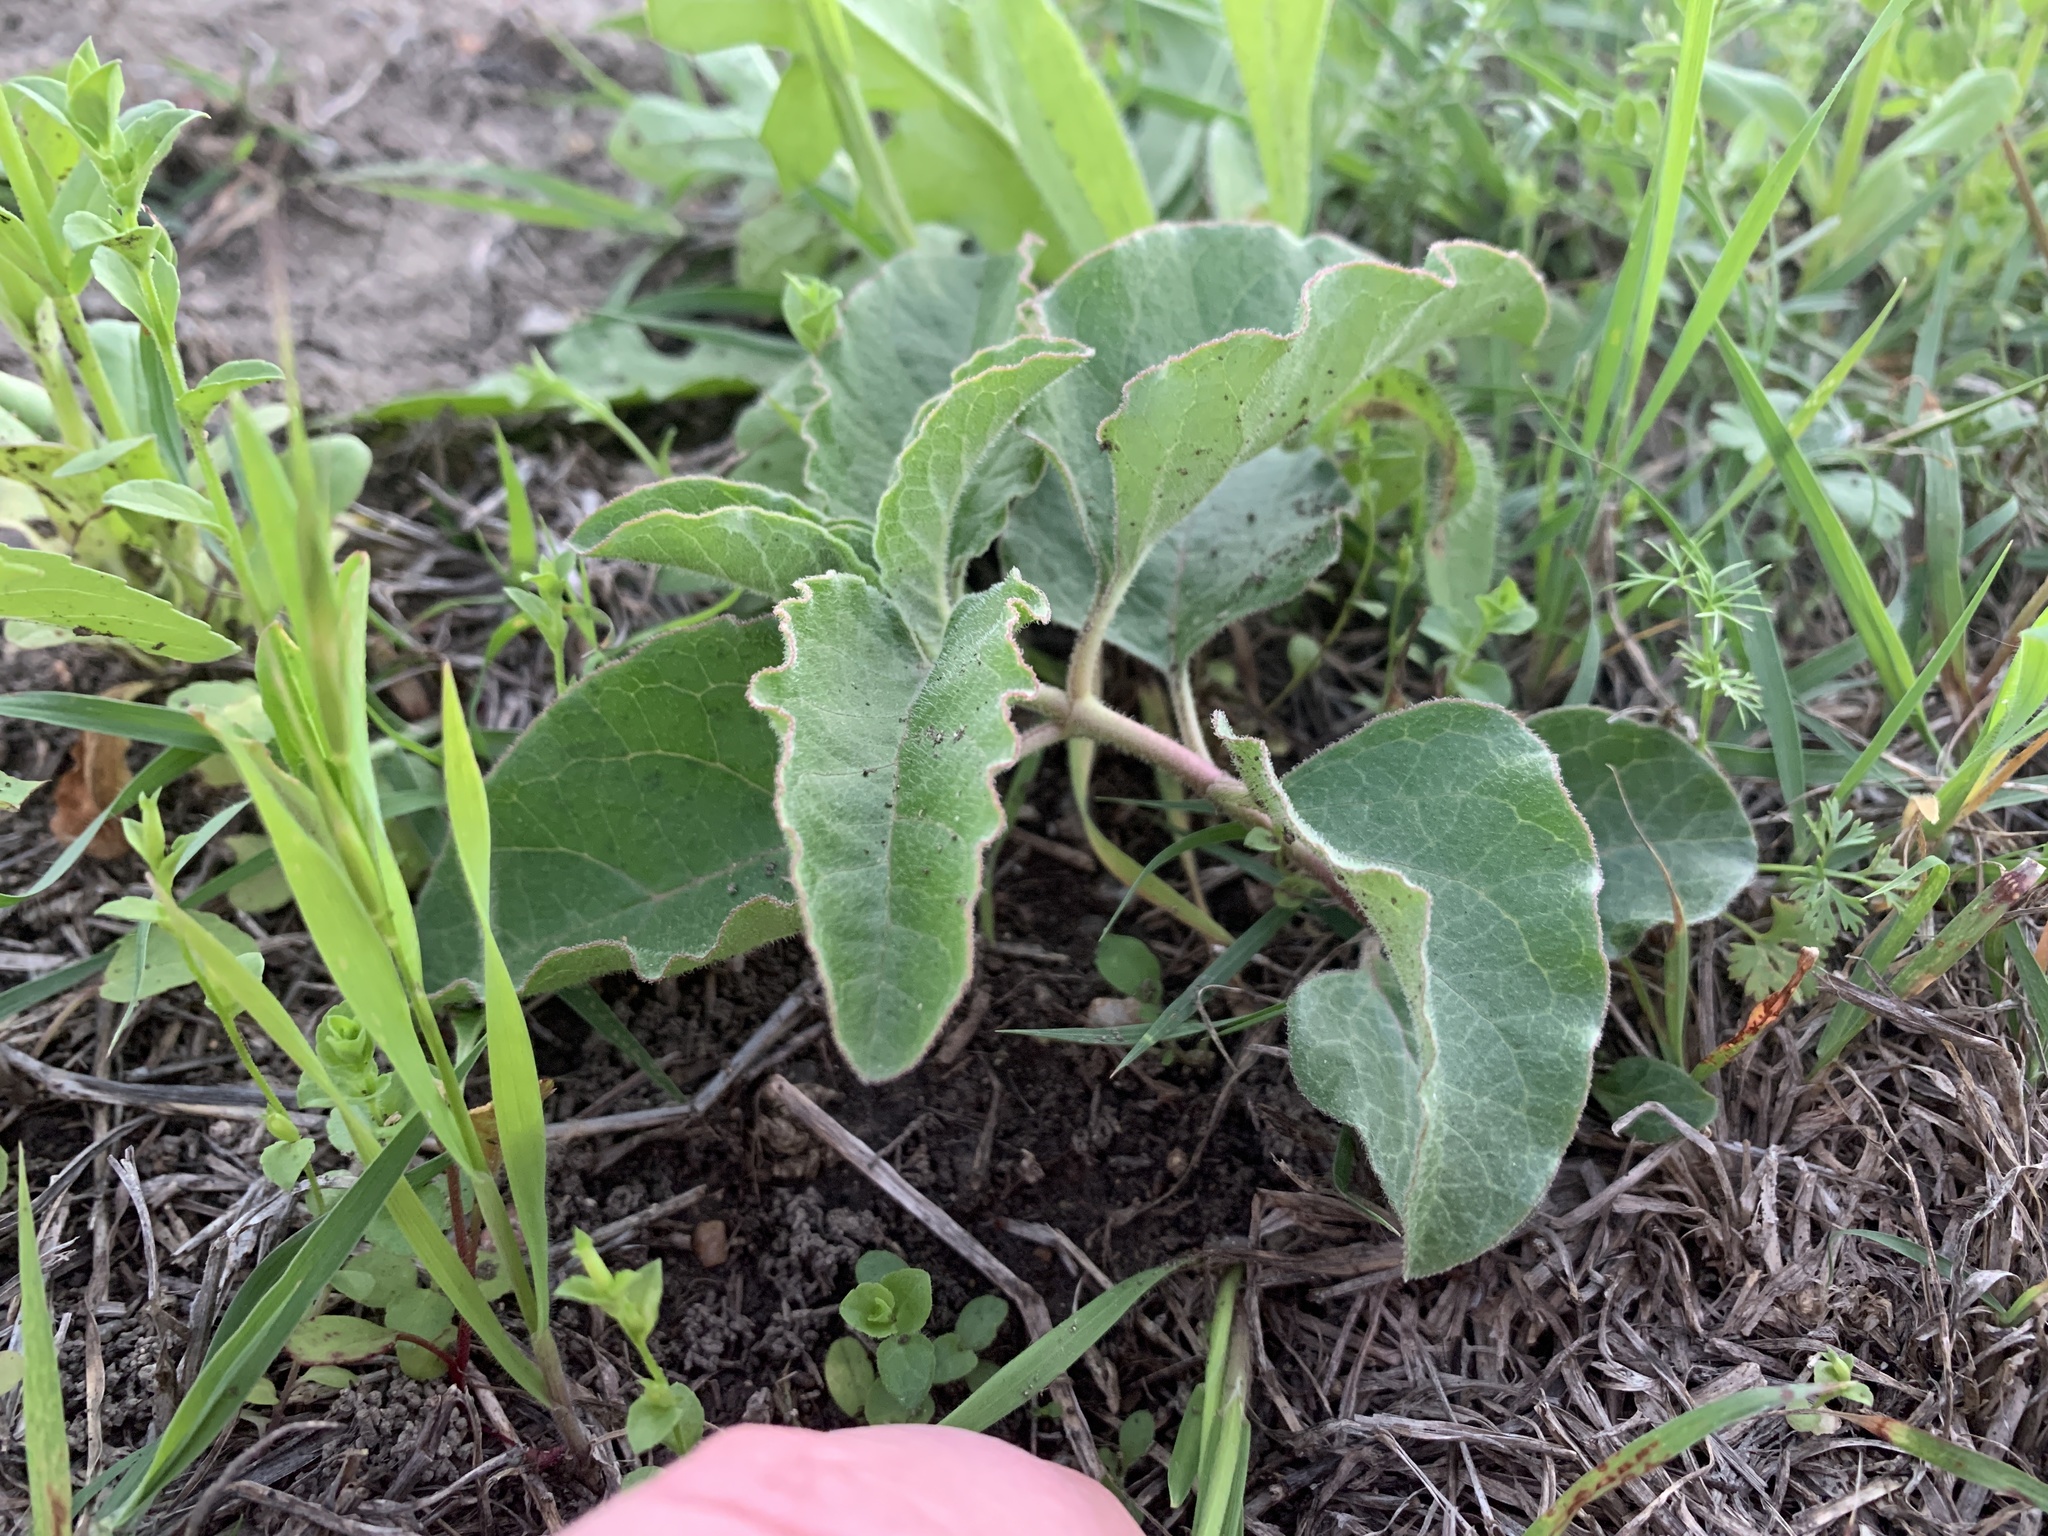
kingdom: Plantae
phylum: Tracheophyta
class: Magnoliopsida
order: Gentianales
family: Apocynaceae
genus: Asclepias
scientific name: Asclepias oenotheroides
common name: Zizotes milkweed
